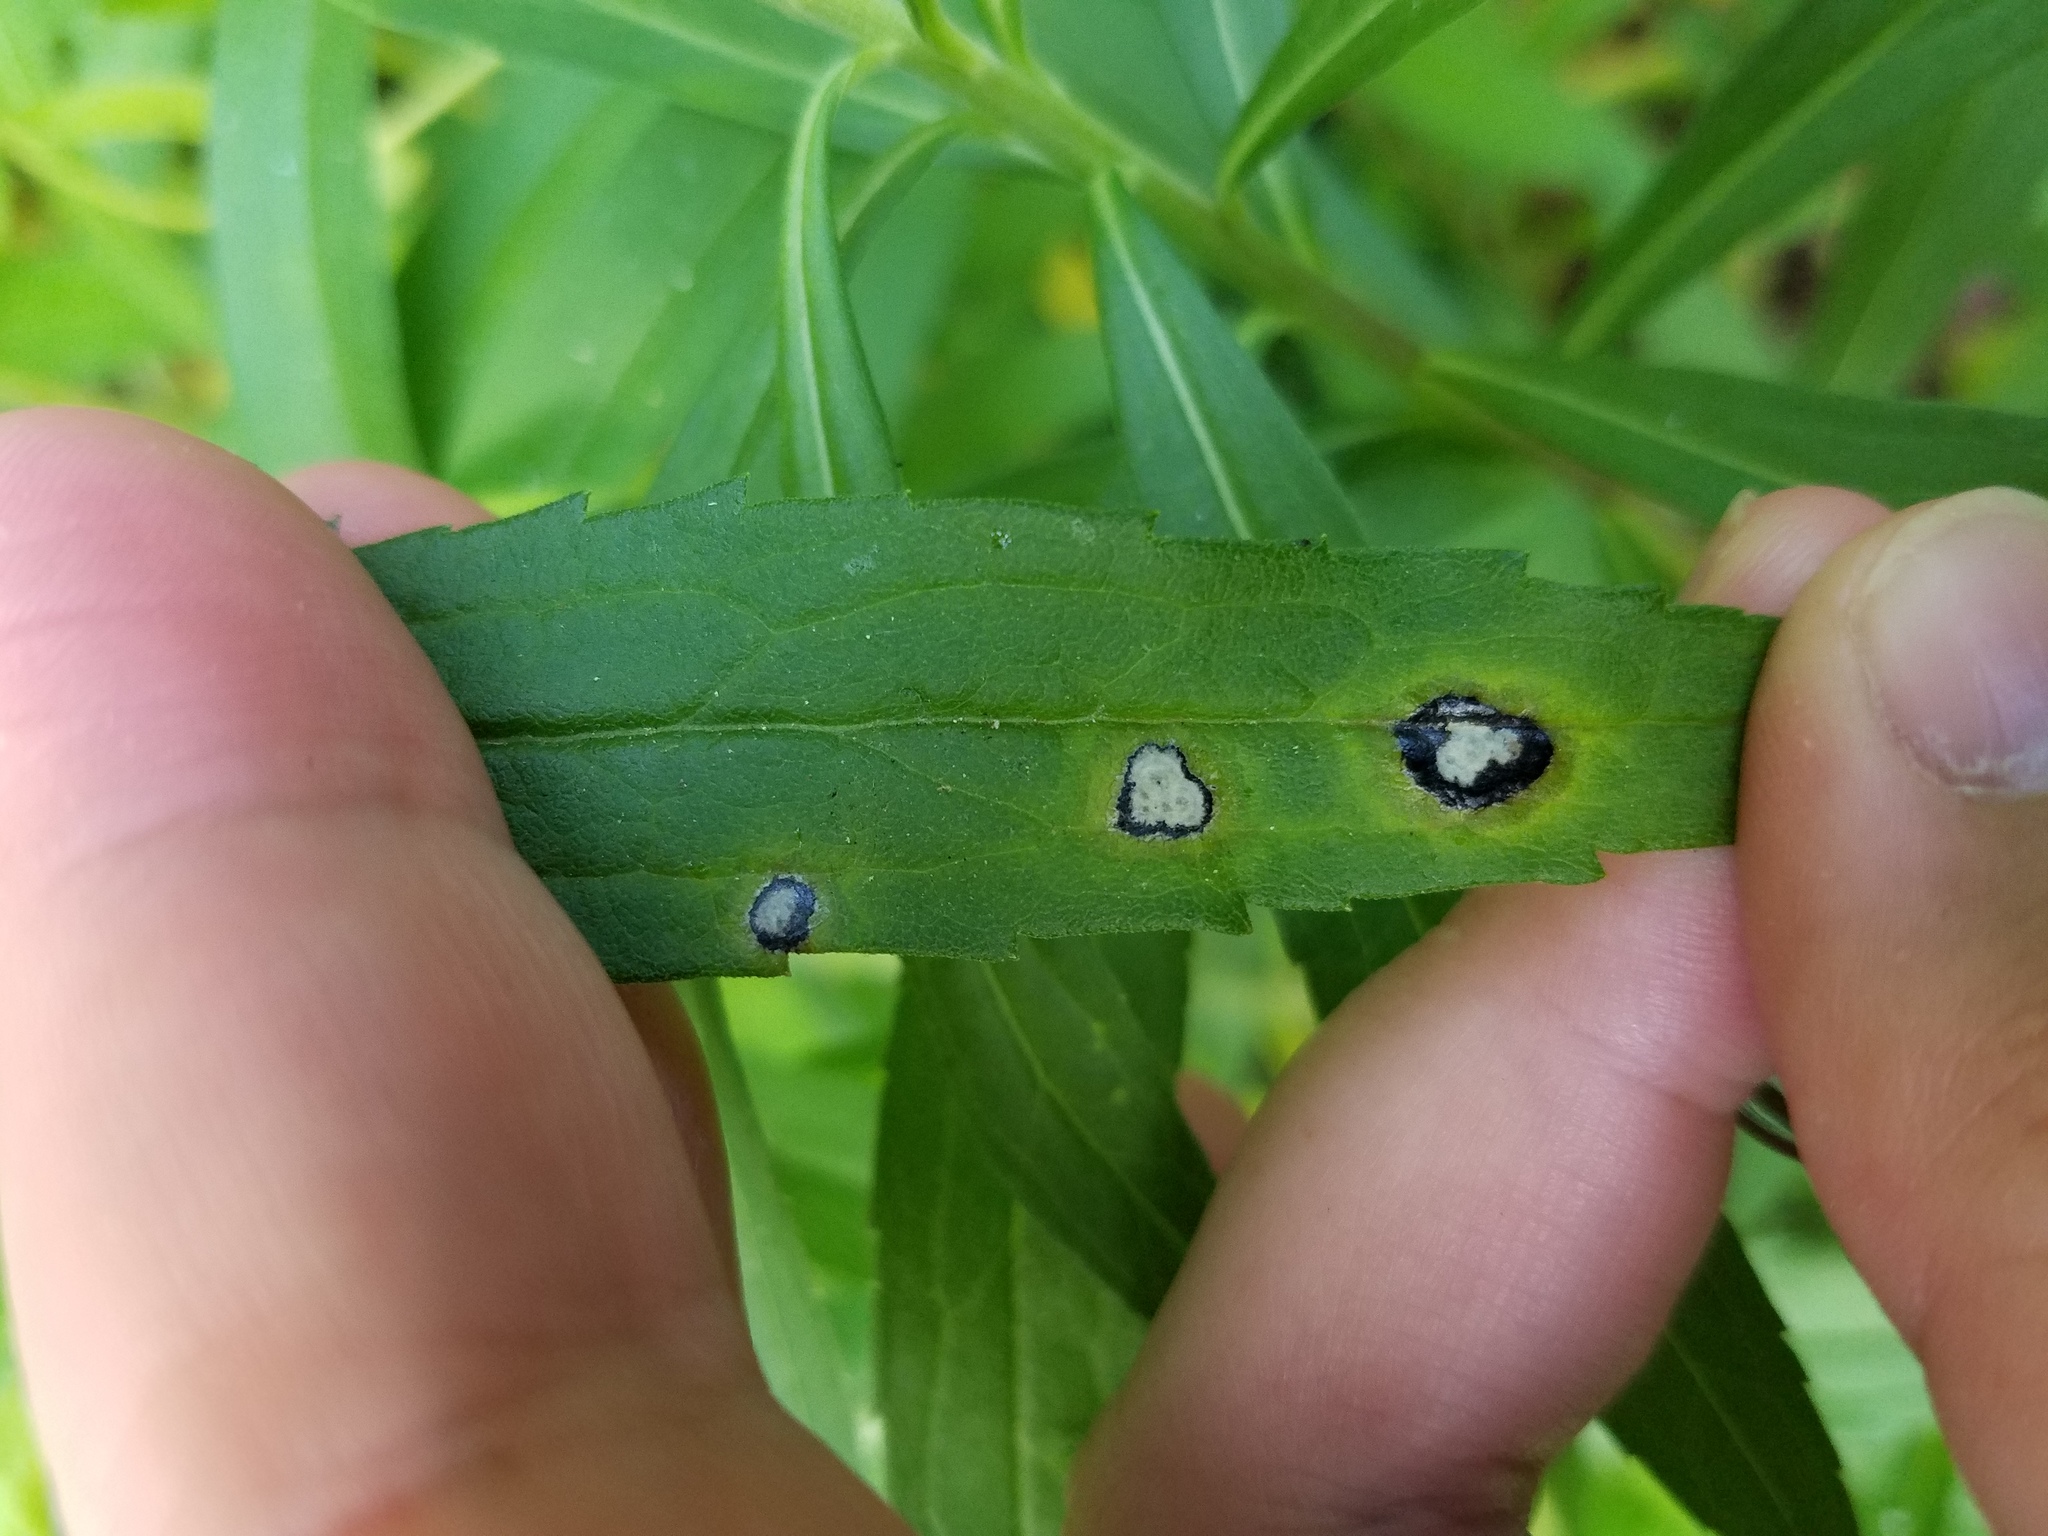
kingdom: Animalia
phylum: Arthropoda
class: Insecta
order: Diptera
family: Cecidomyiidae
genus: Asteromyia
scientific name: Asteromyia carbonifera
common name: Carbonifera goldenrod gall midge
